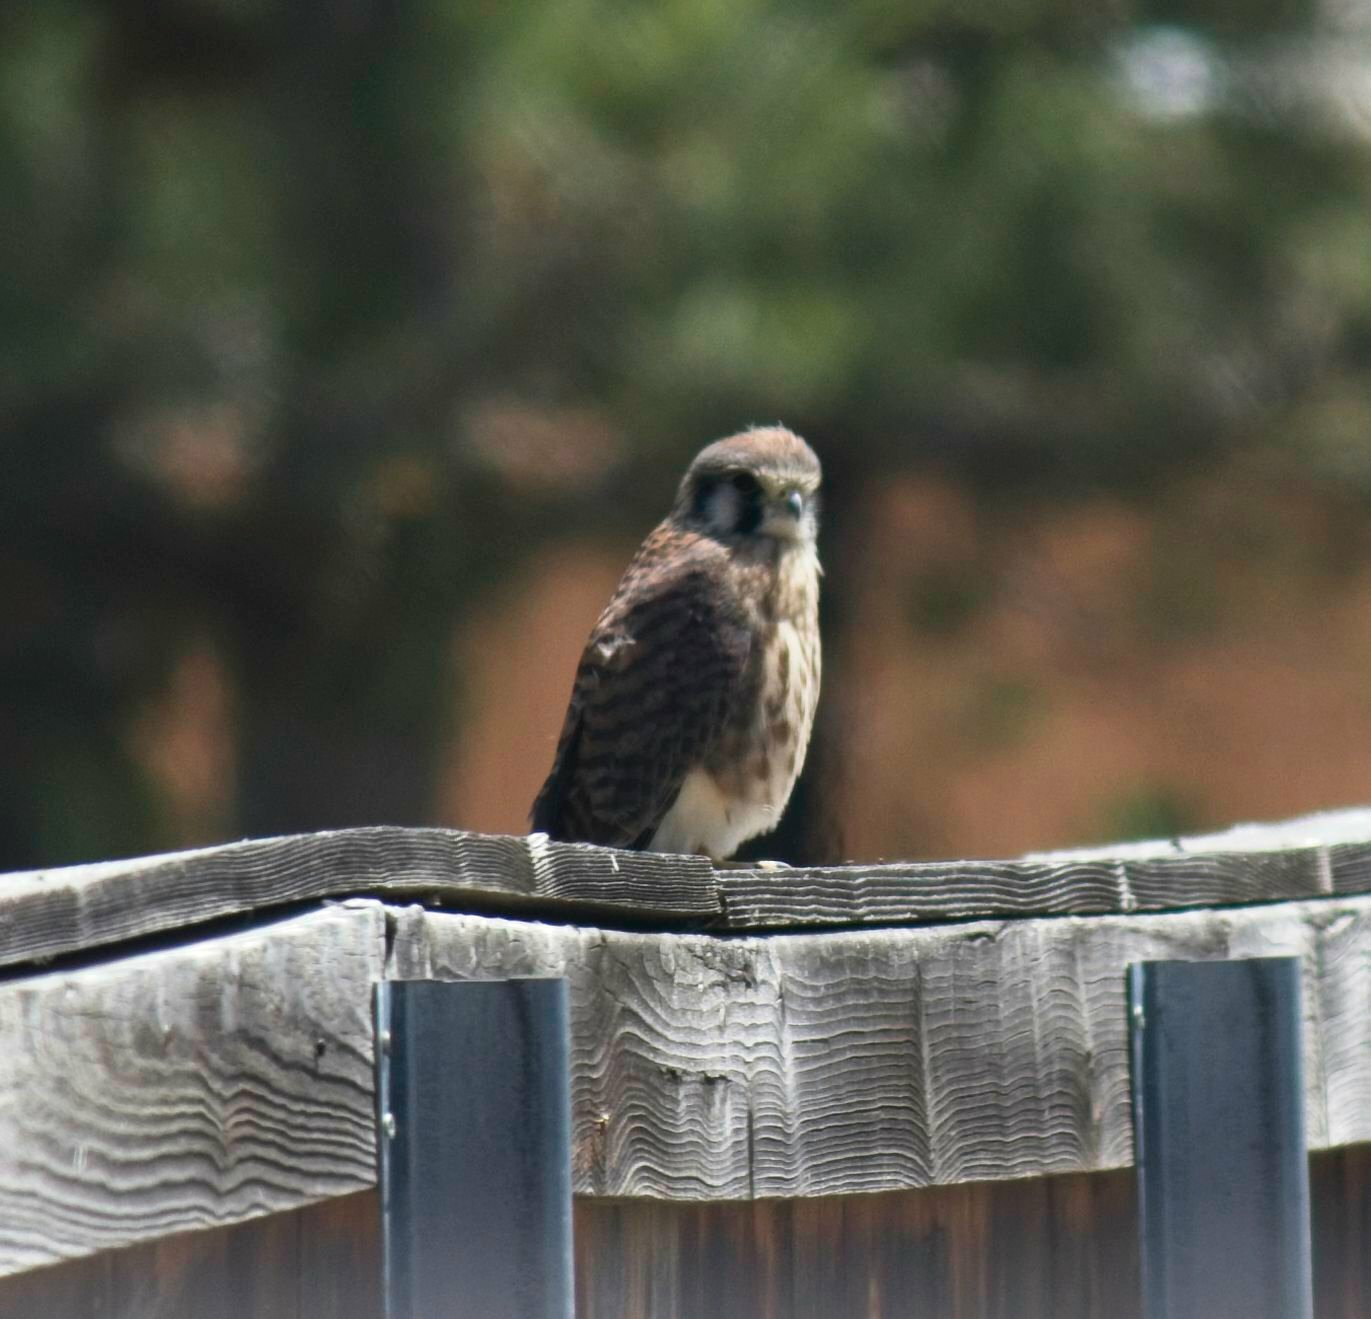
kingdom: Animalia
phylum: Chordata
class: Aves
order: Falconiformes
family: Falconidae
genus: Falco
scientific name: Falco sparverius
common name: American kestrel
